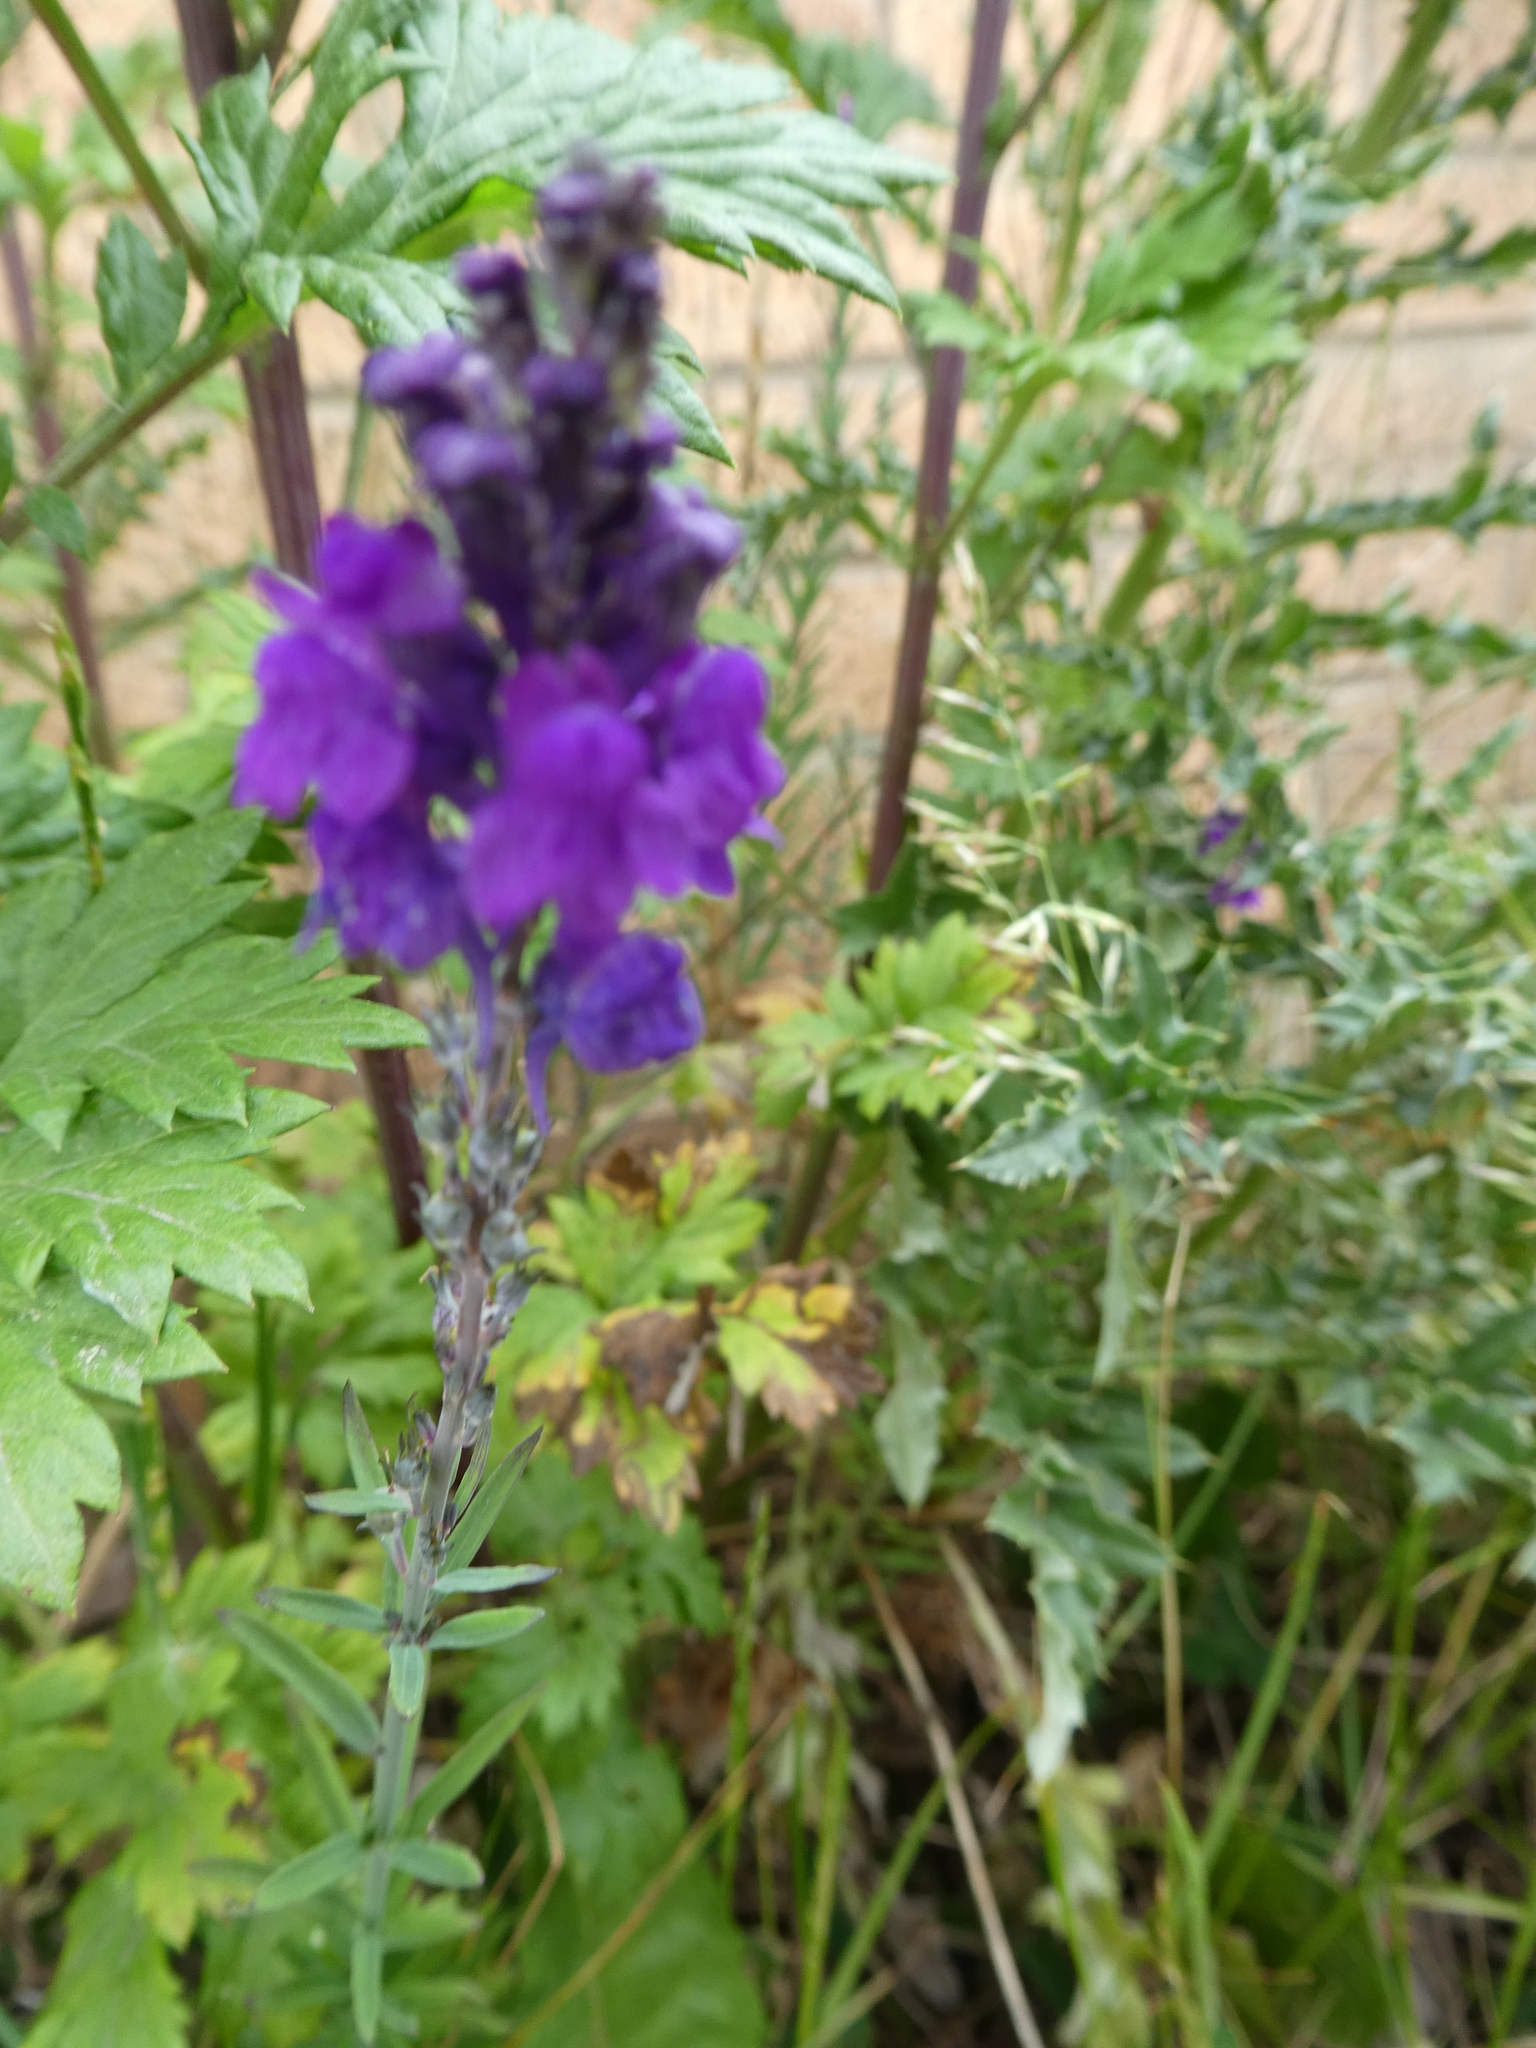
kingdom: Plantae
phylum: Tracheophyta
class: Magnoliopsida
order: Lamiales
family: Plantaginaceae
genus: Linaria
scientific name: Linaria purpurea
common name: Purple toadflax
